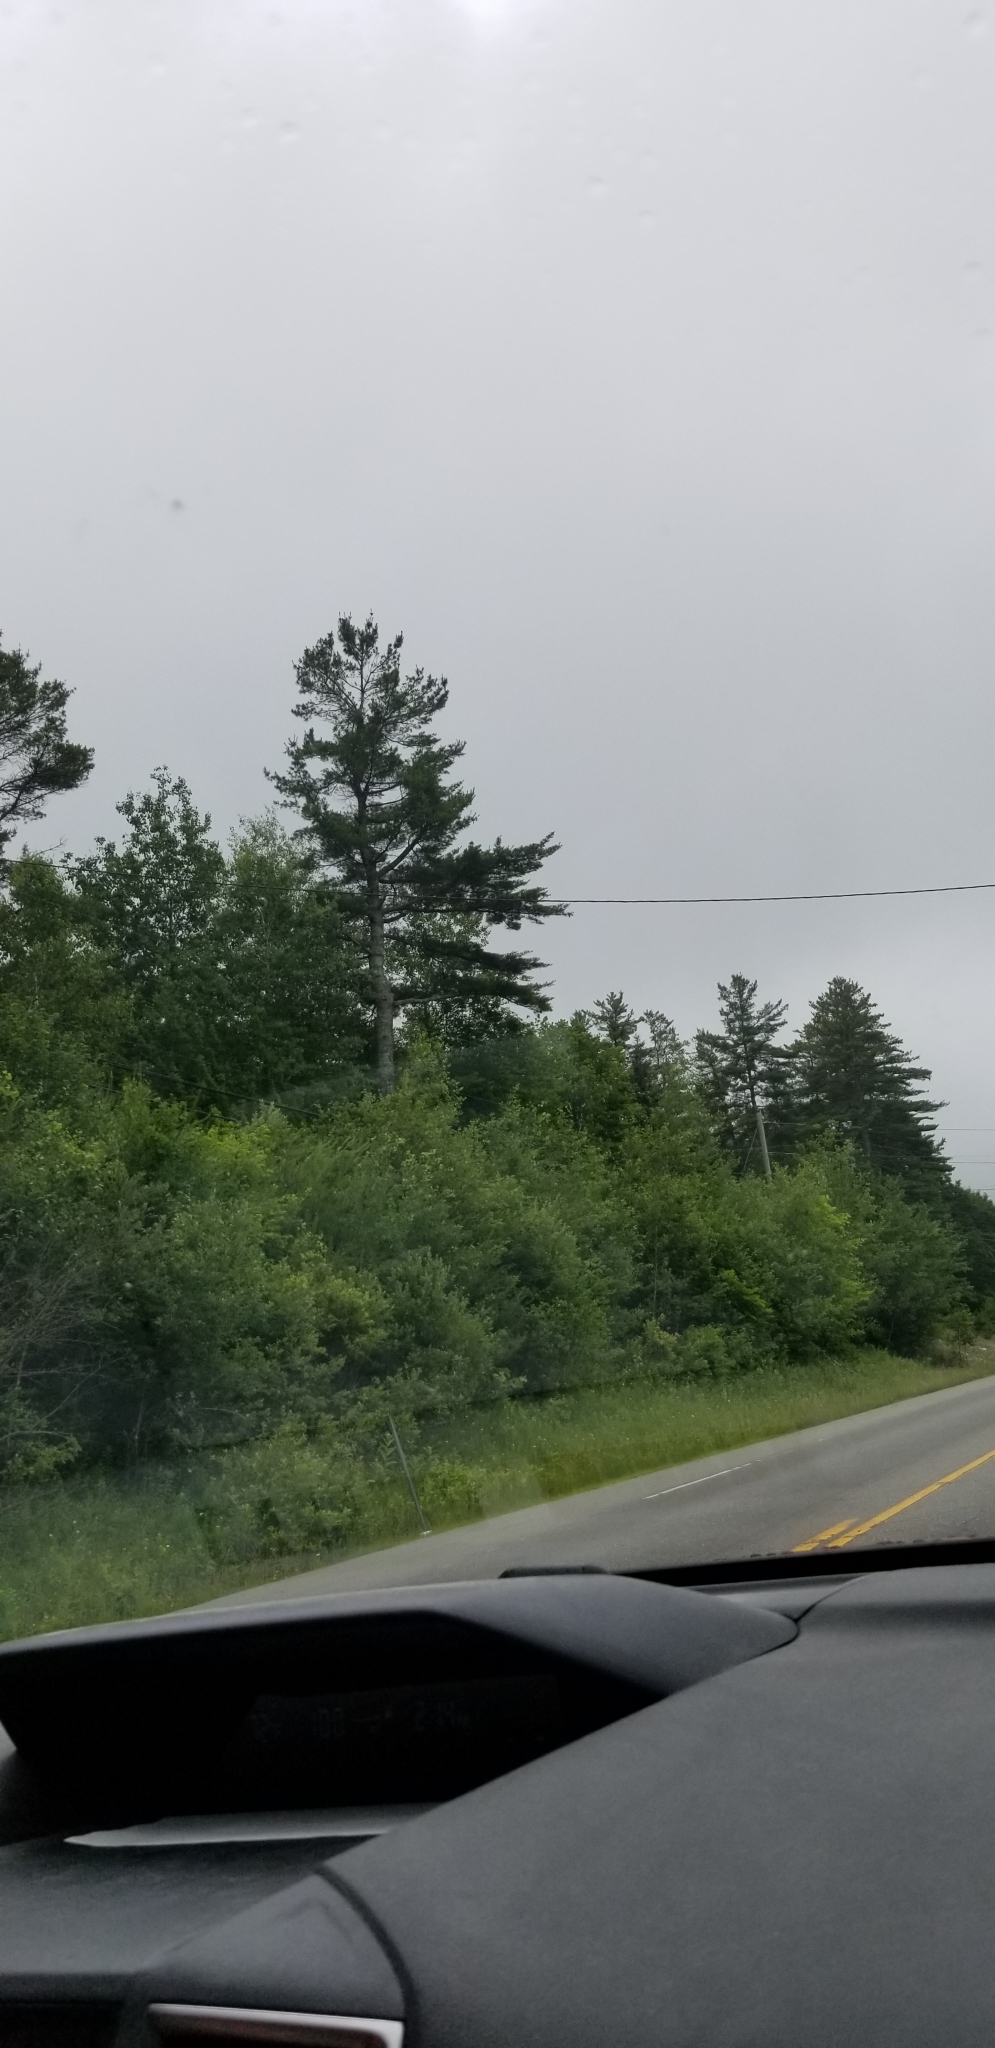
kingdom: Plantae
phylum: Tracheophyta
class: Pinopsida
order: Pinales
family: Pinaceae
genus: Pinus
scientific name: Pinus strobus
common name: Weymouth pine
